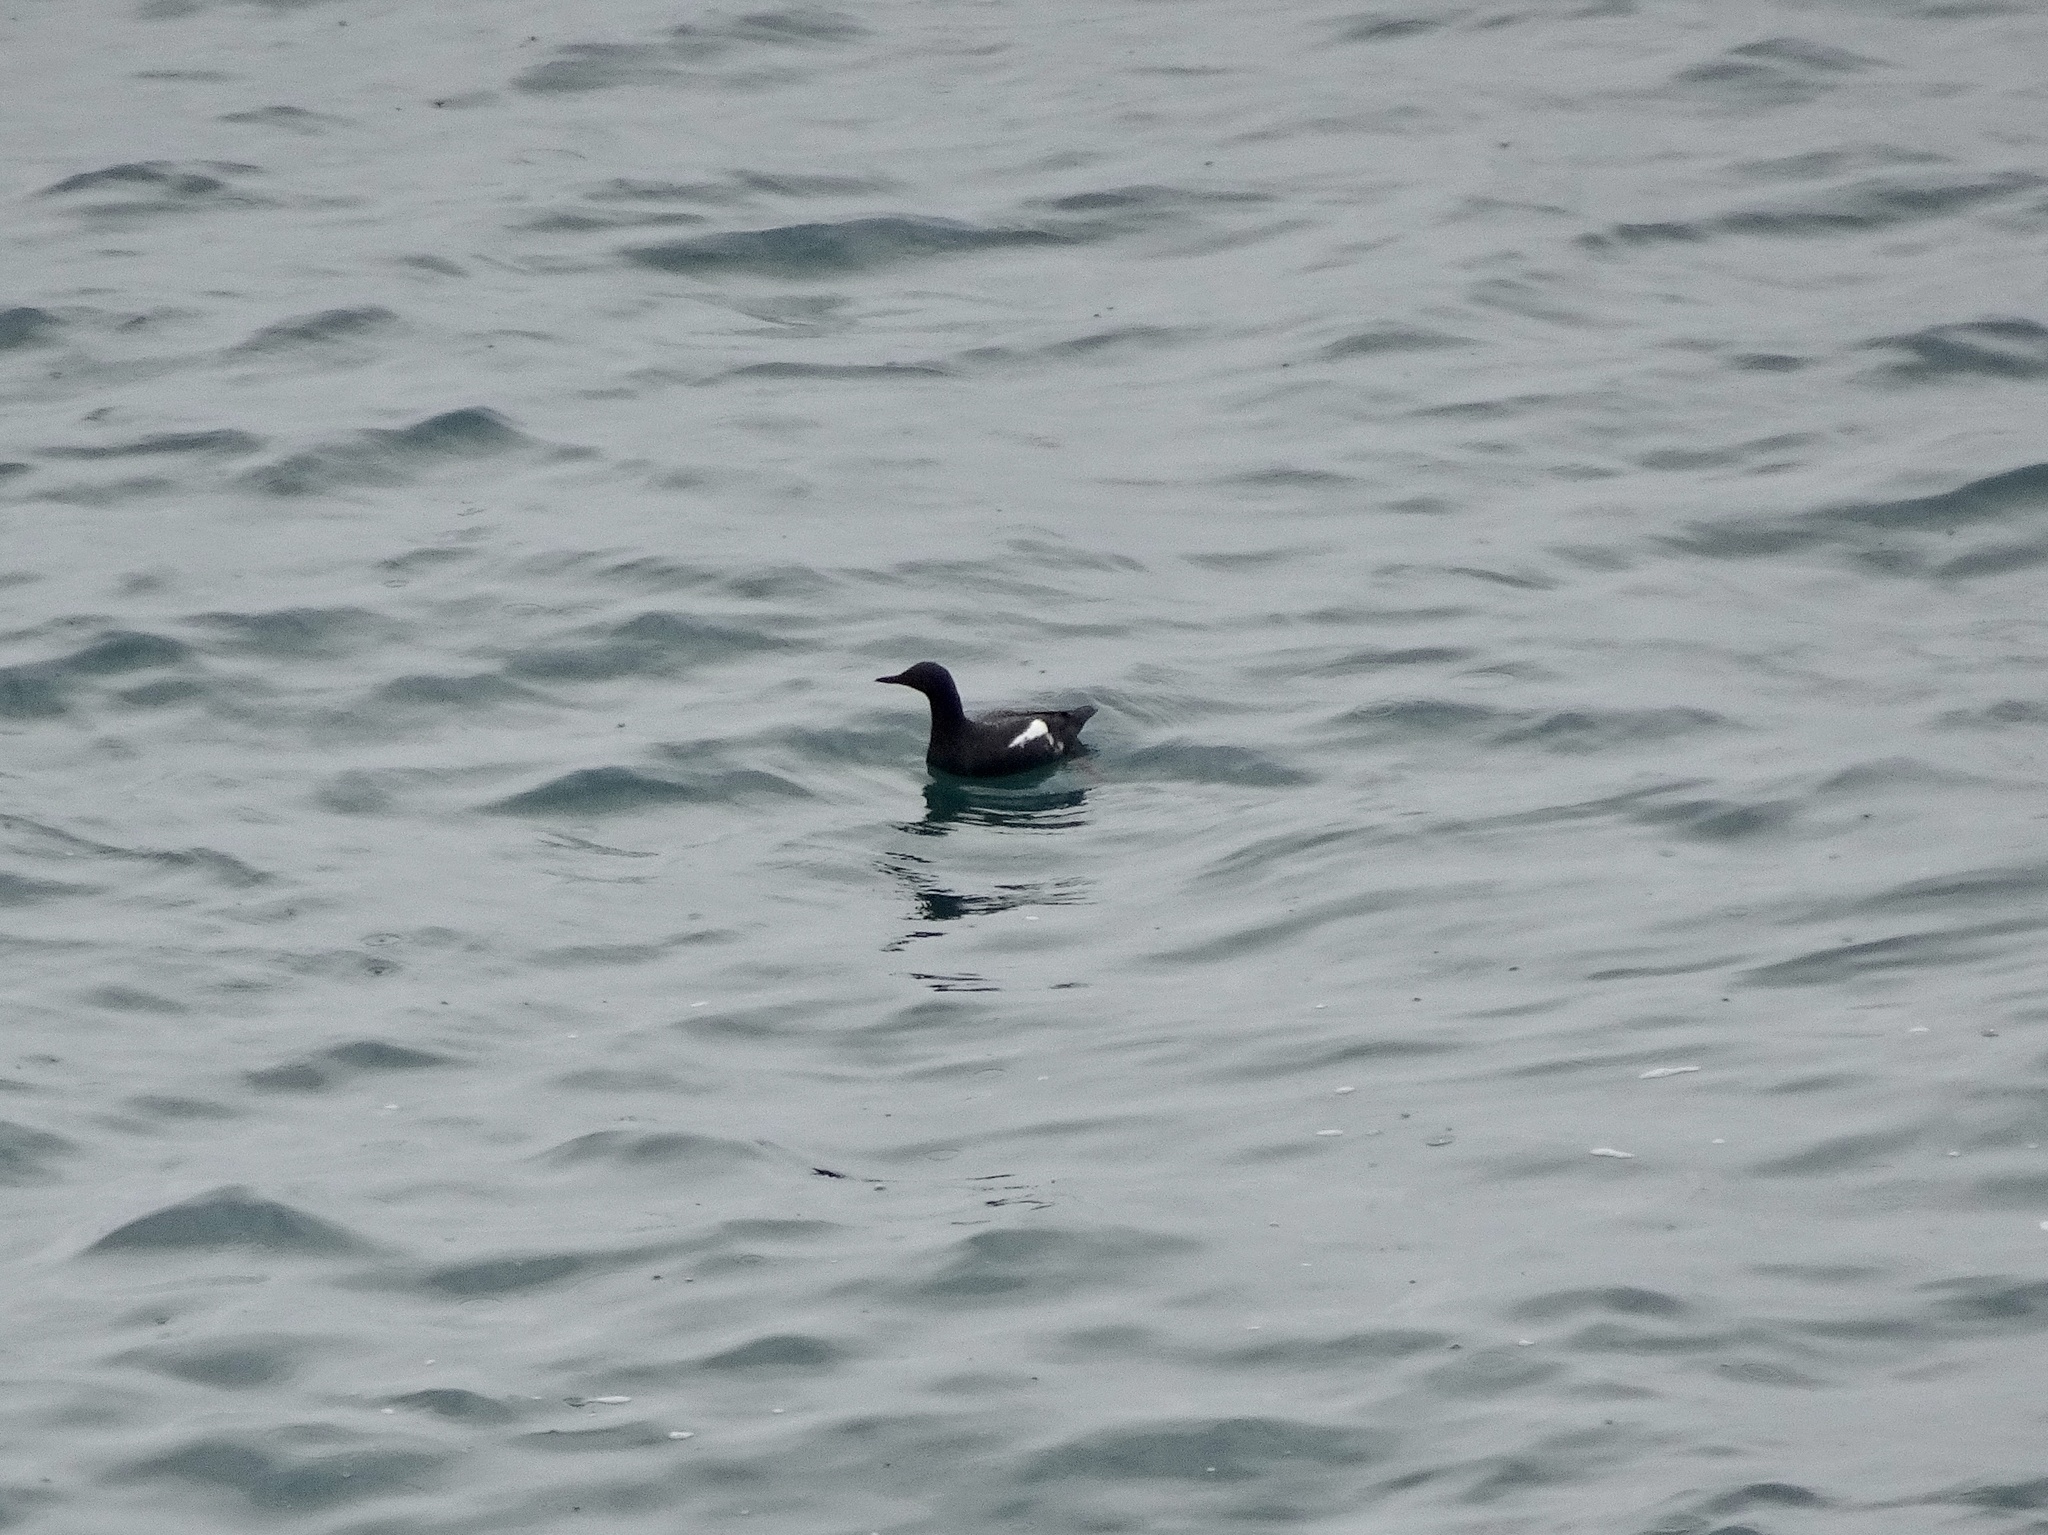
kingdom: Animalia
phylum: Chordata
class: Aves
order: Charadriiformes
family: Alcidae
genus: Cepphus
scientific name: Cepphus columba
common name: Pigeon guillemot
